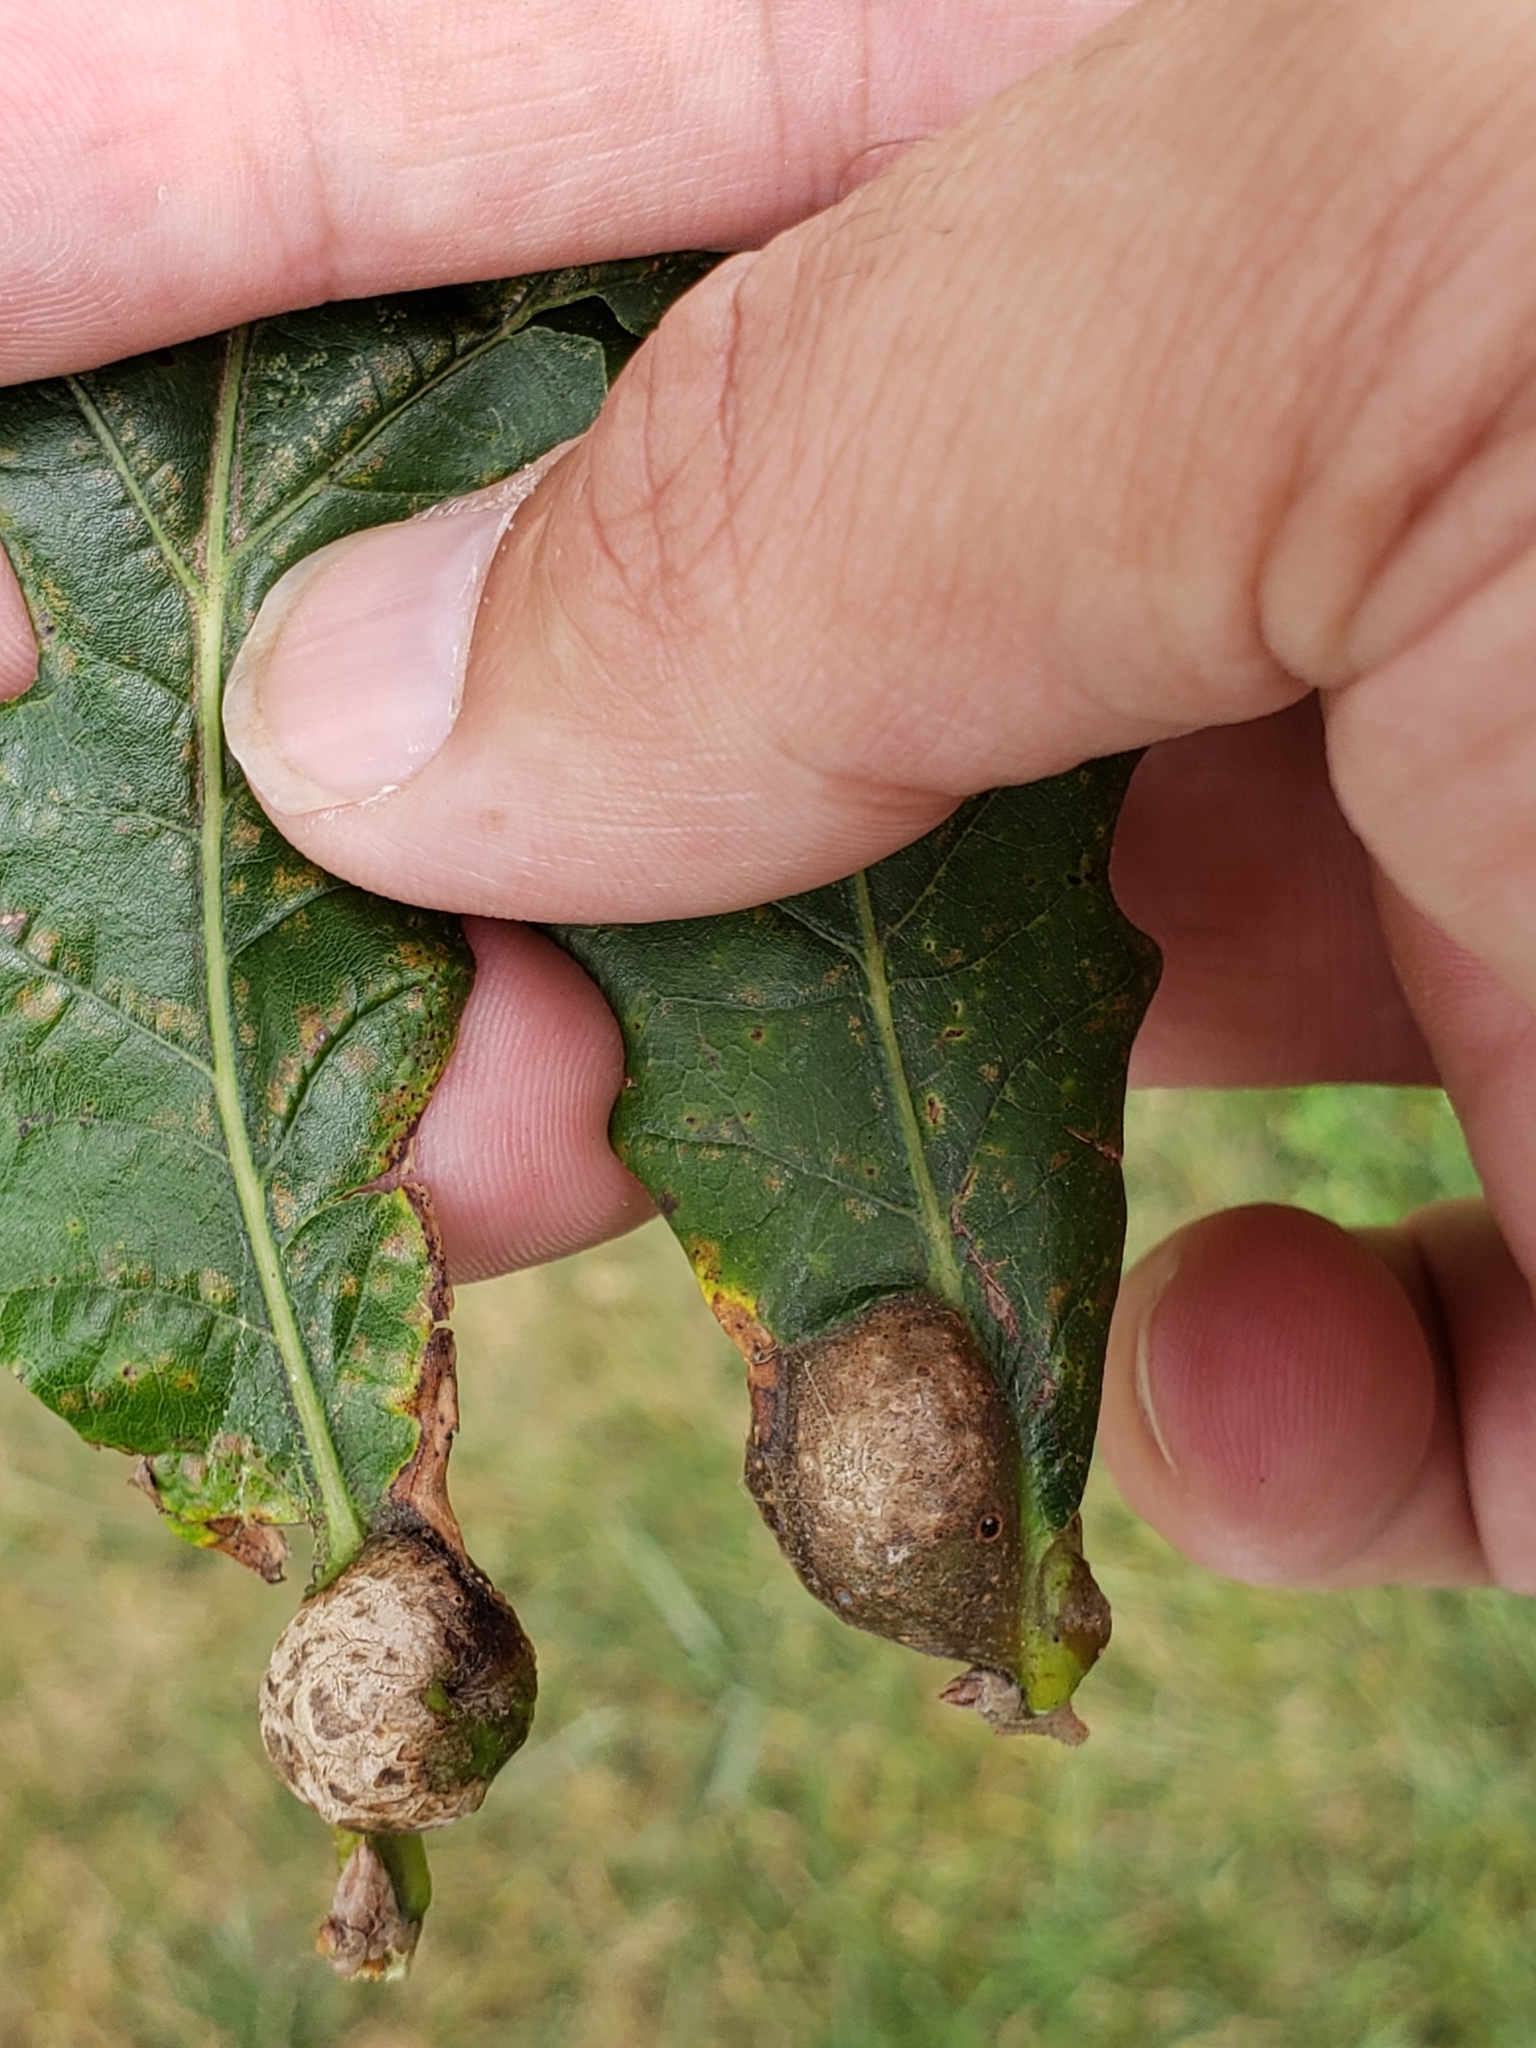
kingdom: Animalia
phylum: Arthropoda
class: Insecta
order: Hymenoptera
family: Cynipidae
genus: Andricus
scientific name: Andricus
